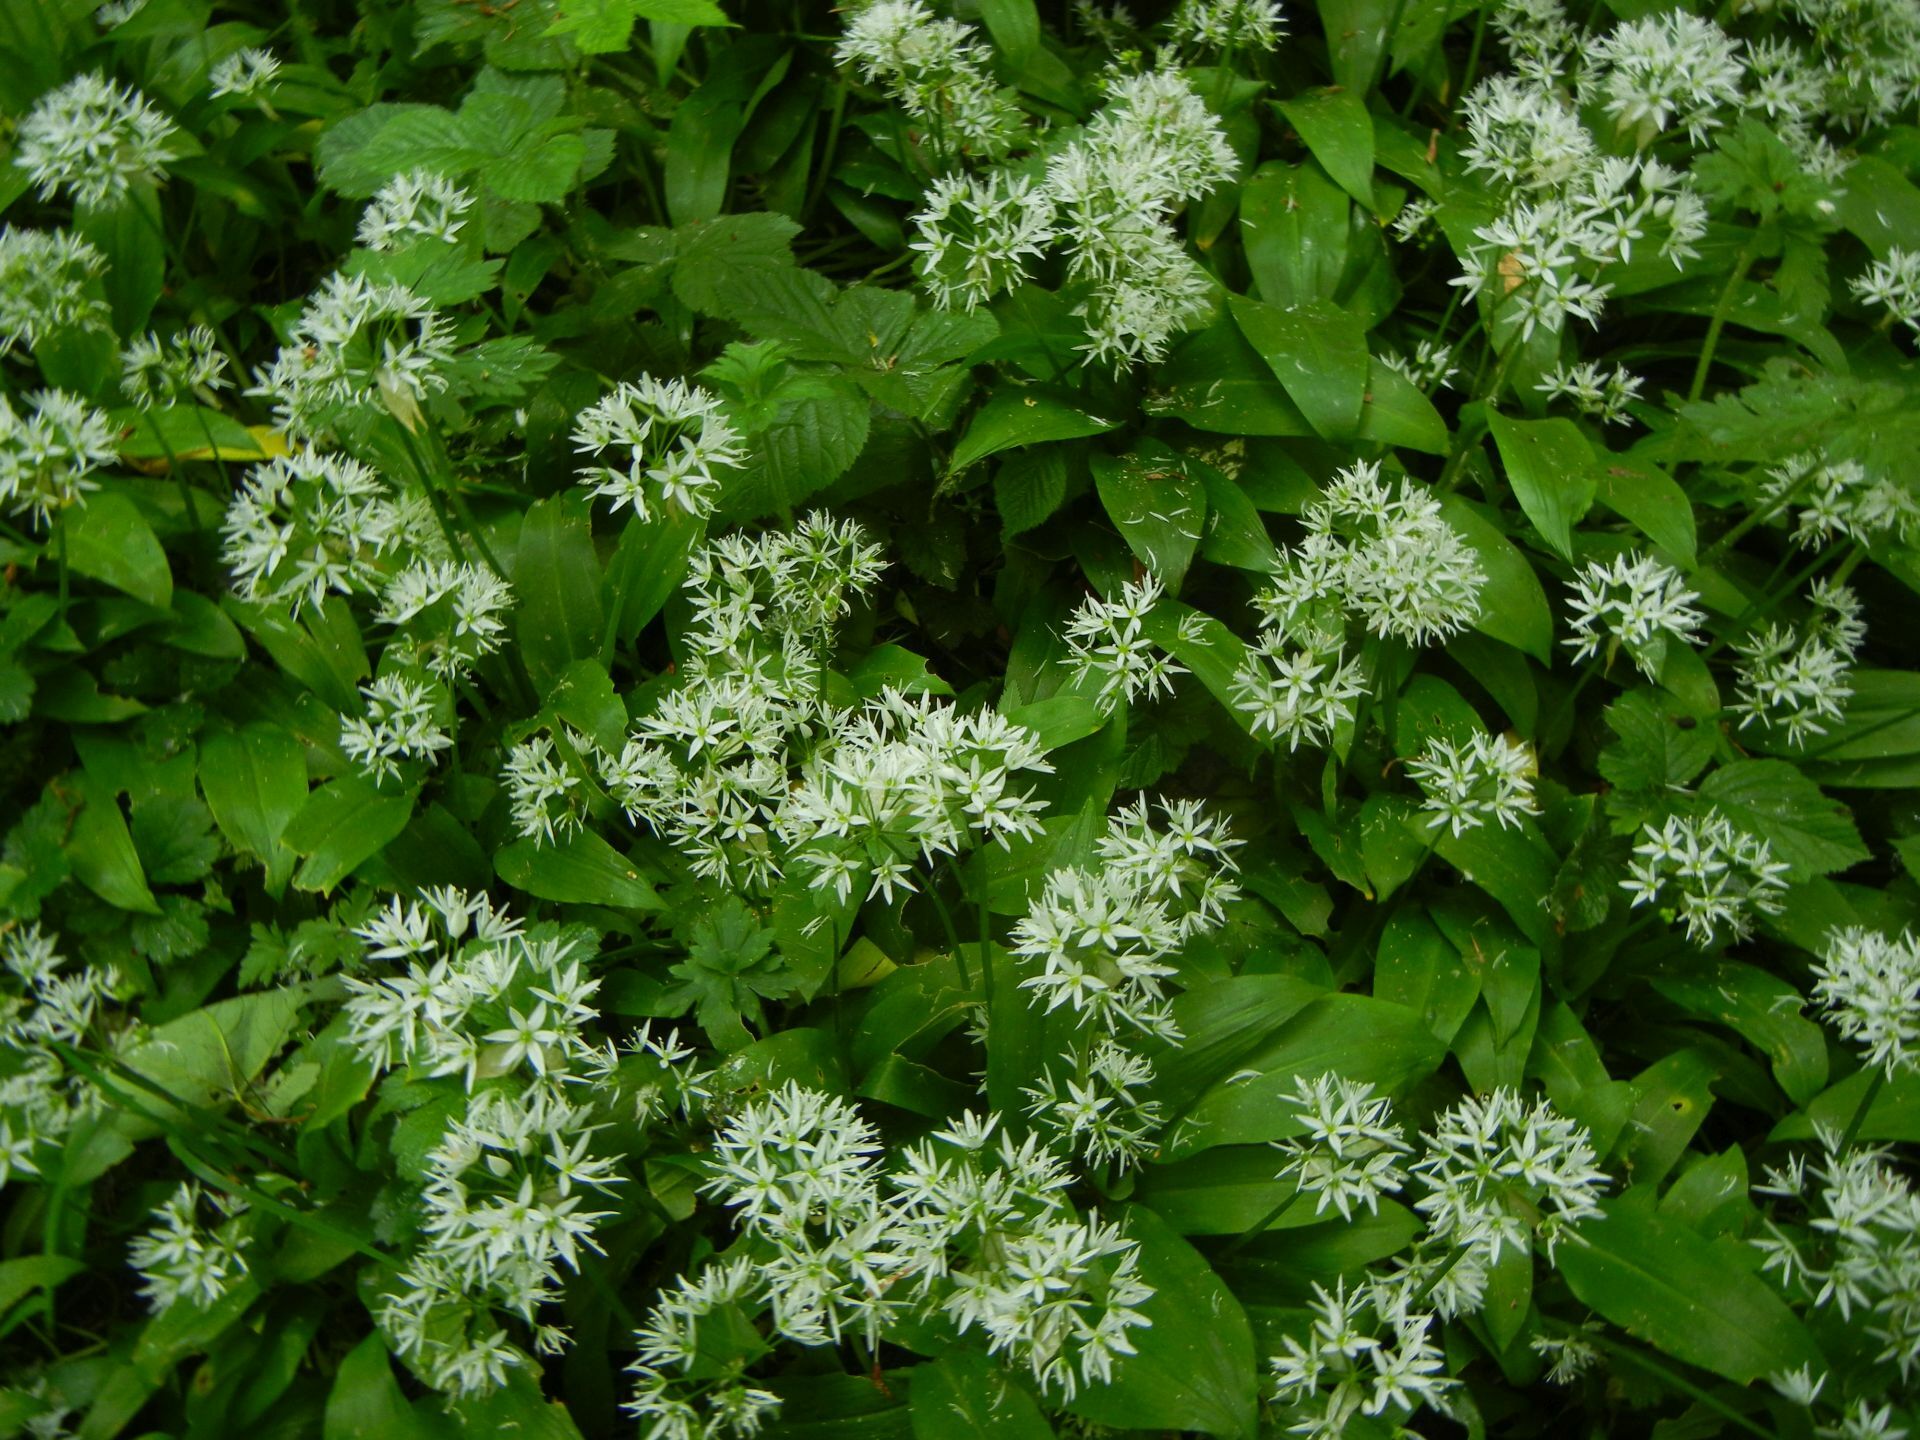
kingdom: Plantae
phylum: Tracheophyta
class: Liliopsida
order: Asparagales
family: Amaryllidaceae
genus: Allium
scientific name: Allium ursinum
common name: Ramsons
